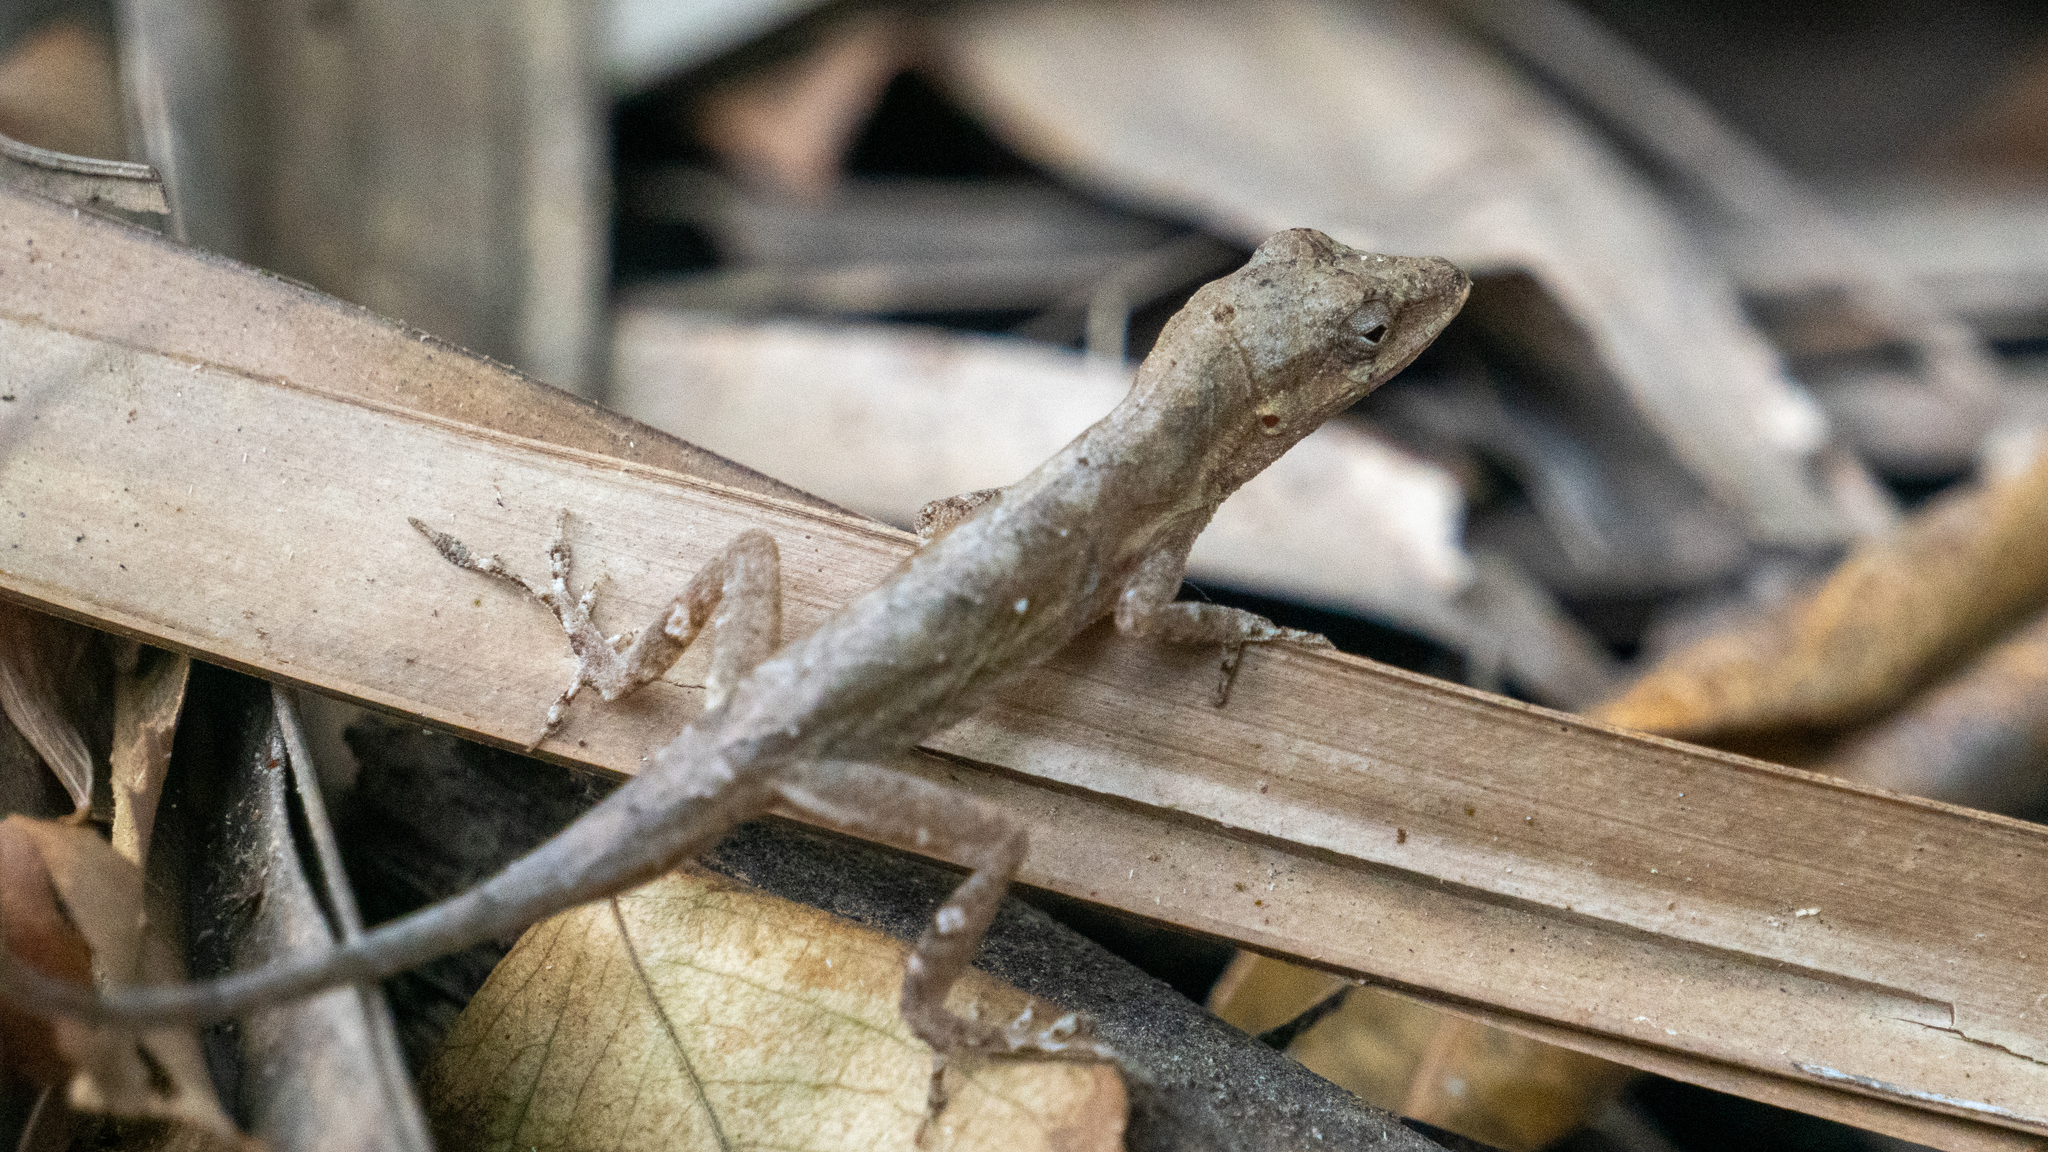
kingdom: Animalia
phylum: Chordata
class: Squamata
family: Dactyloidae
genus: Anolis
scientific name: Anolis nebulosus
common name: Clouded anole
